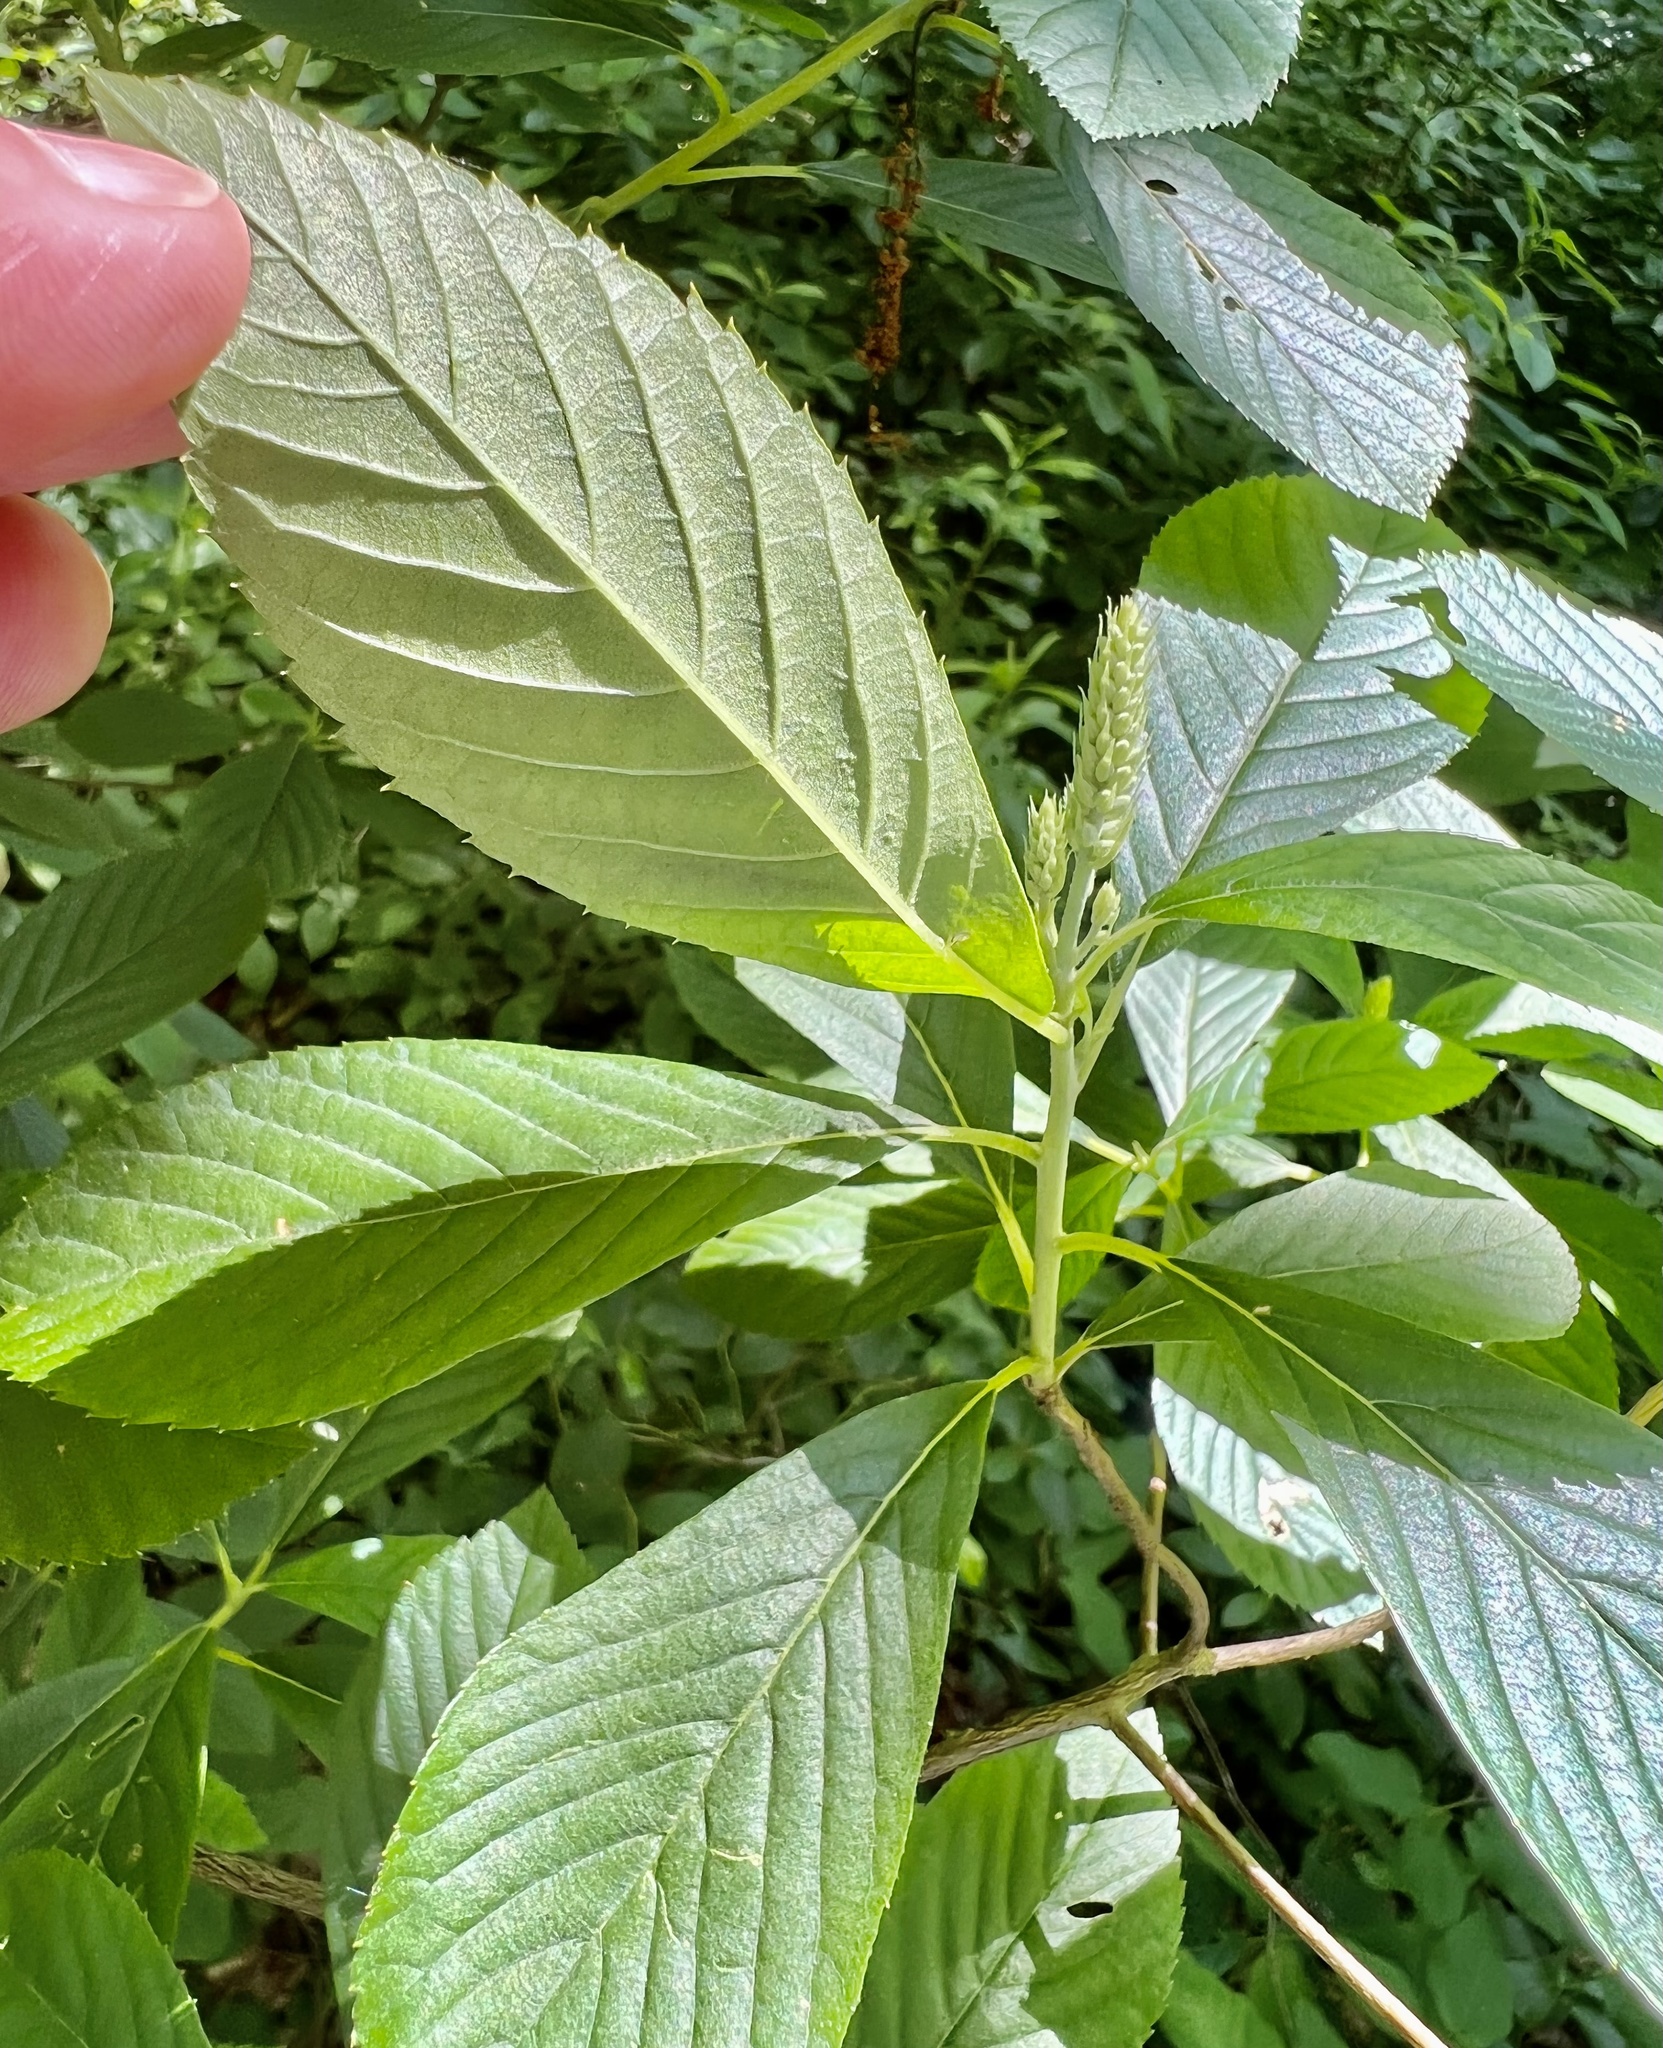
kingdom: Plantae
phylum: Tracheophyta
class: Magnoliopsida
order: Ericales
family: Clethraceae
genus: Clethra
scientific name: Clethra alnifolia
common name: Sweet pepperbush
